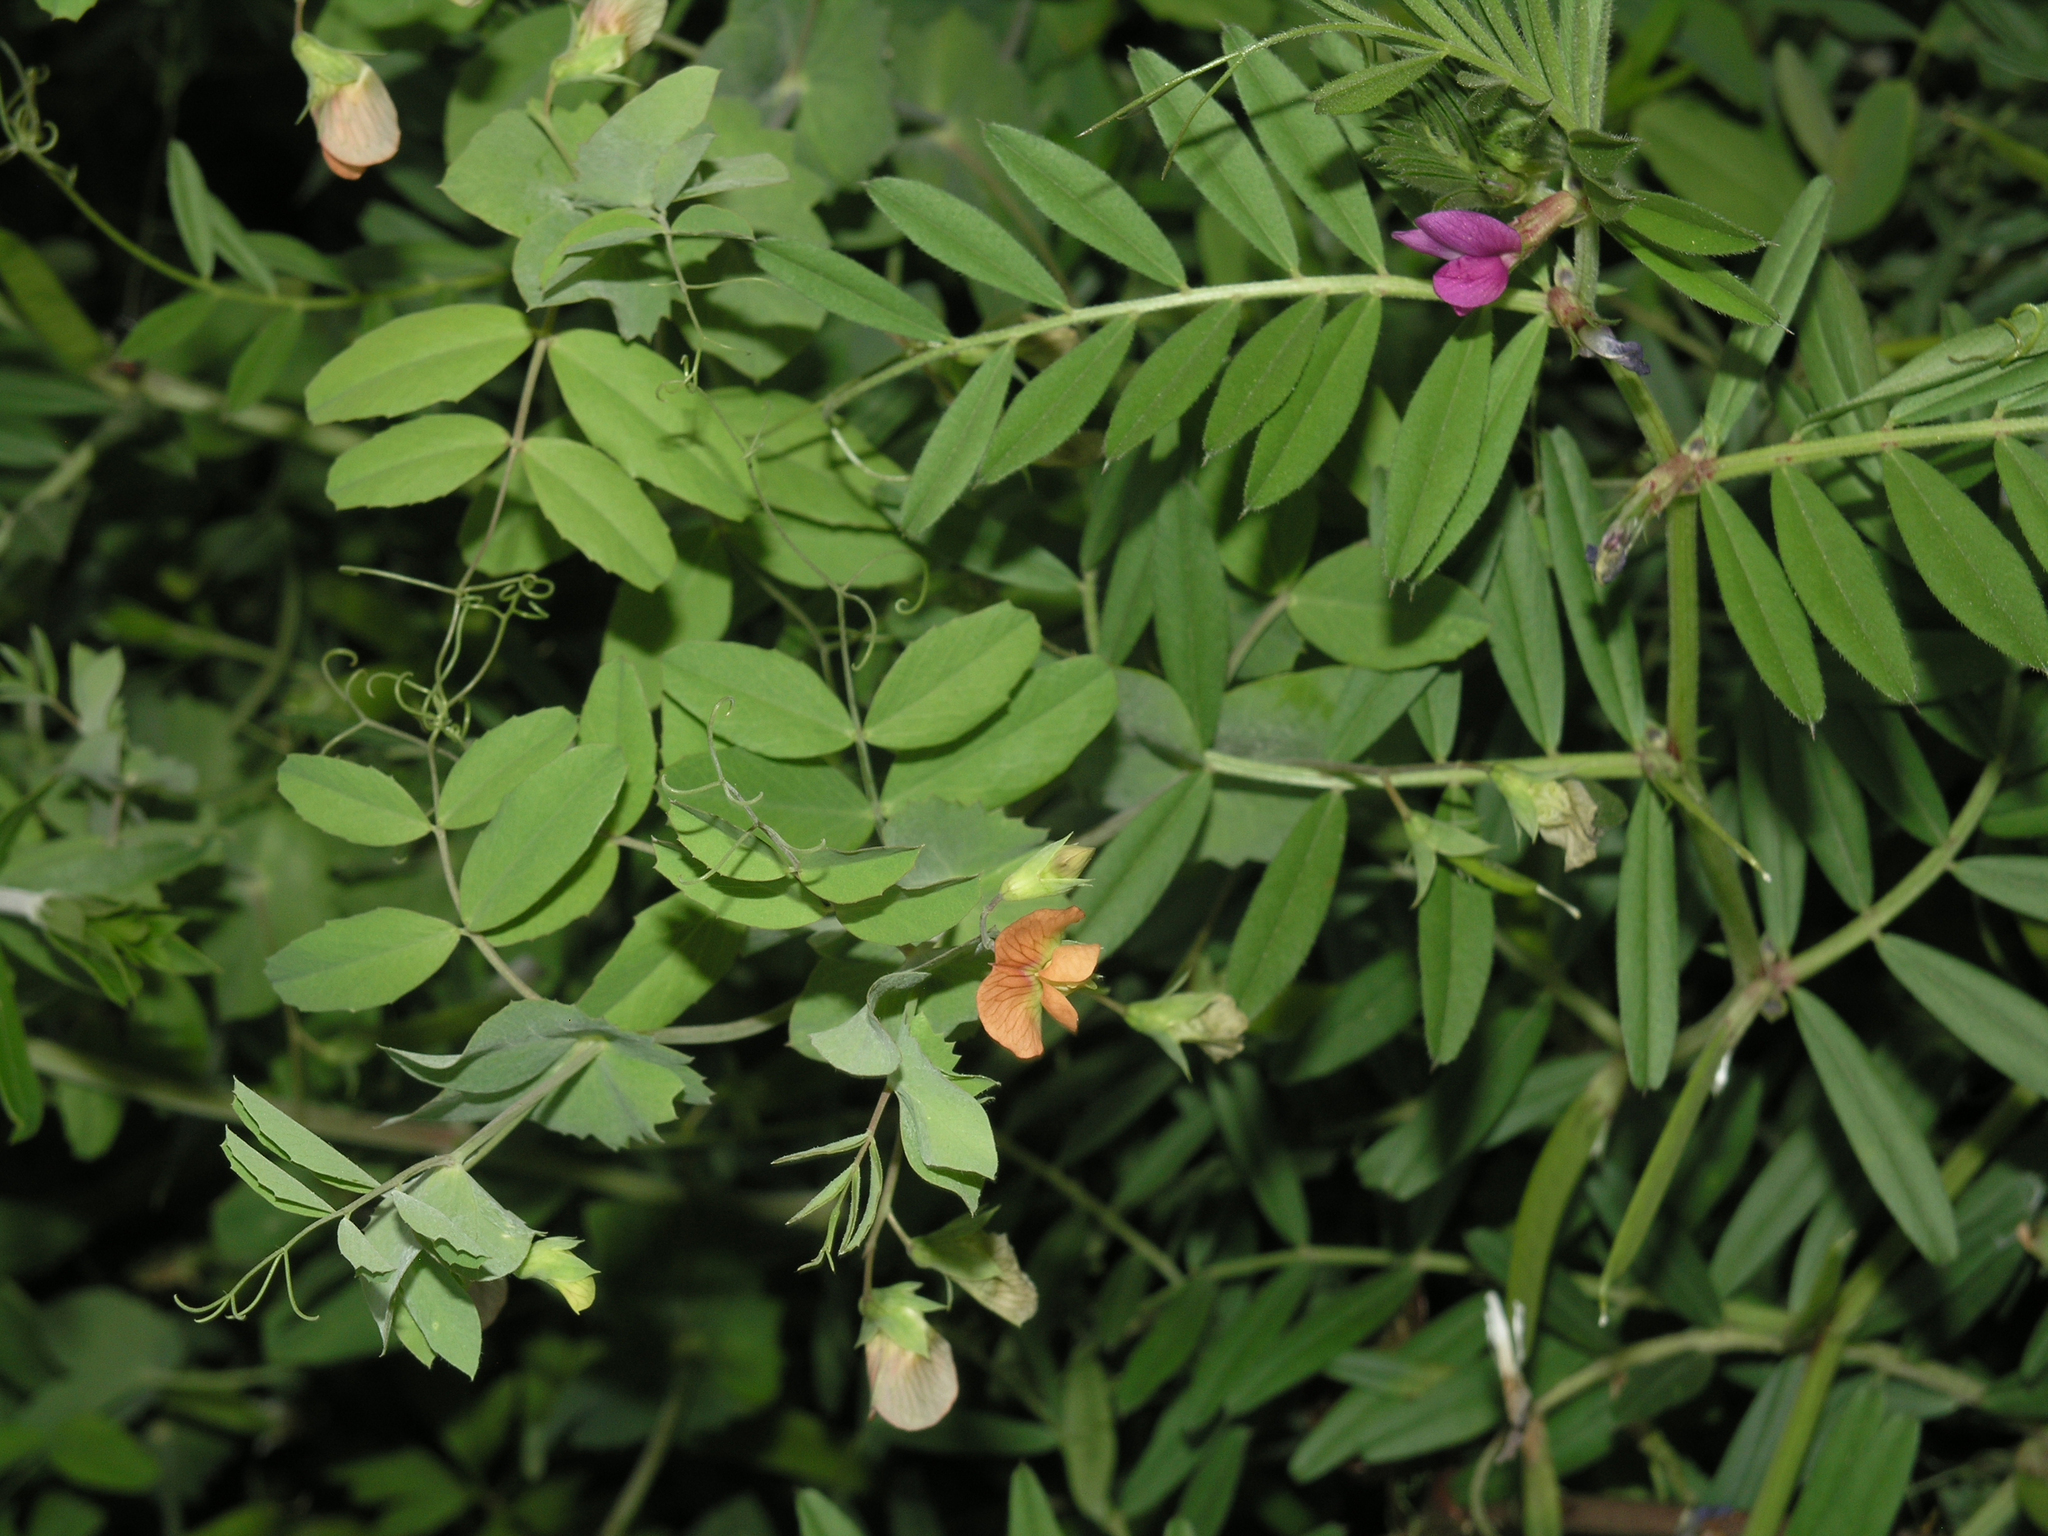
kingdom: Plantae
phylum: Tracheophyta
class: Magnoliopsida
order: Fabales
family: Fabaceae
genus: Lathyrus
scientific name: Lathyrus fulvus
